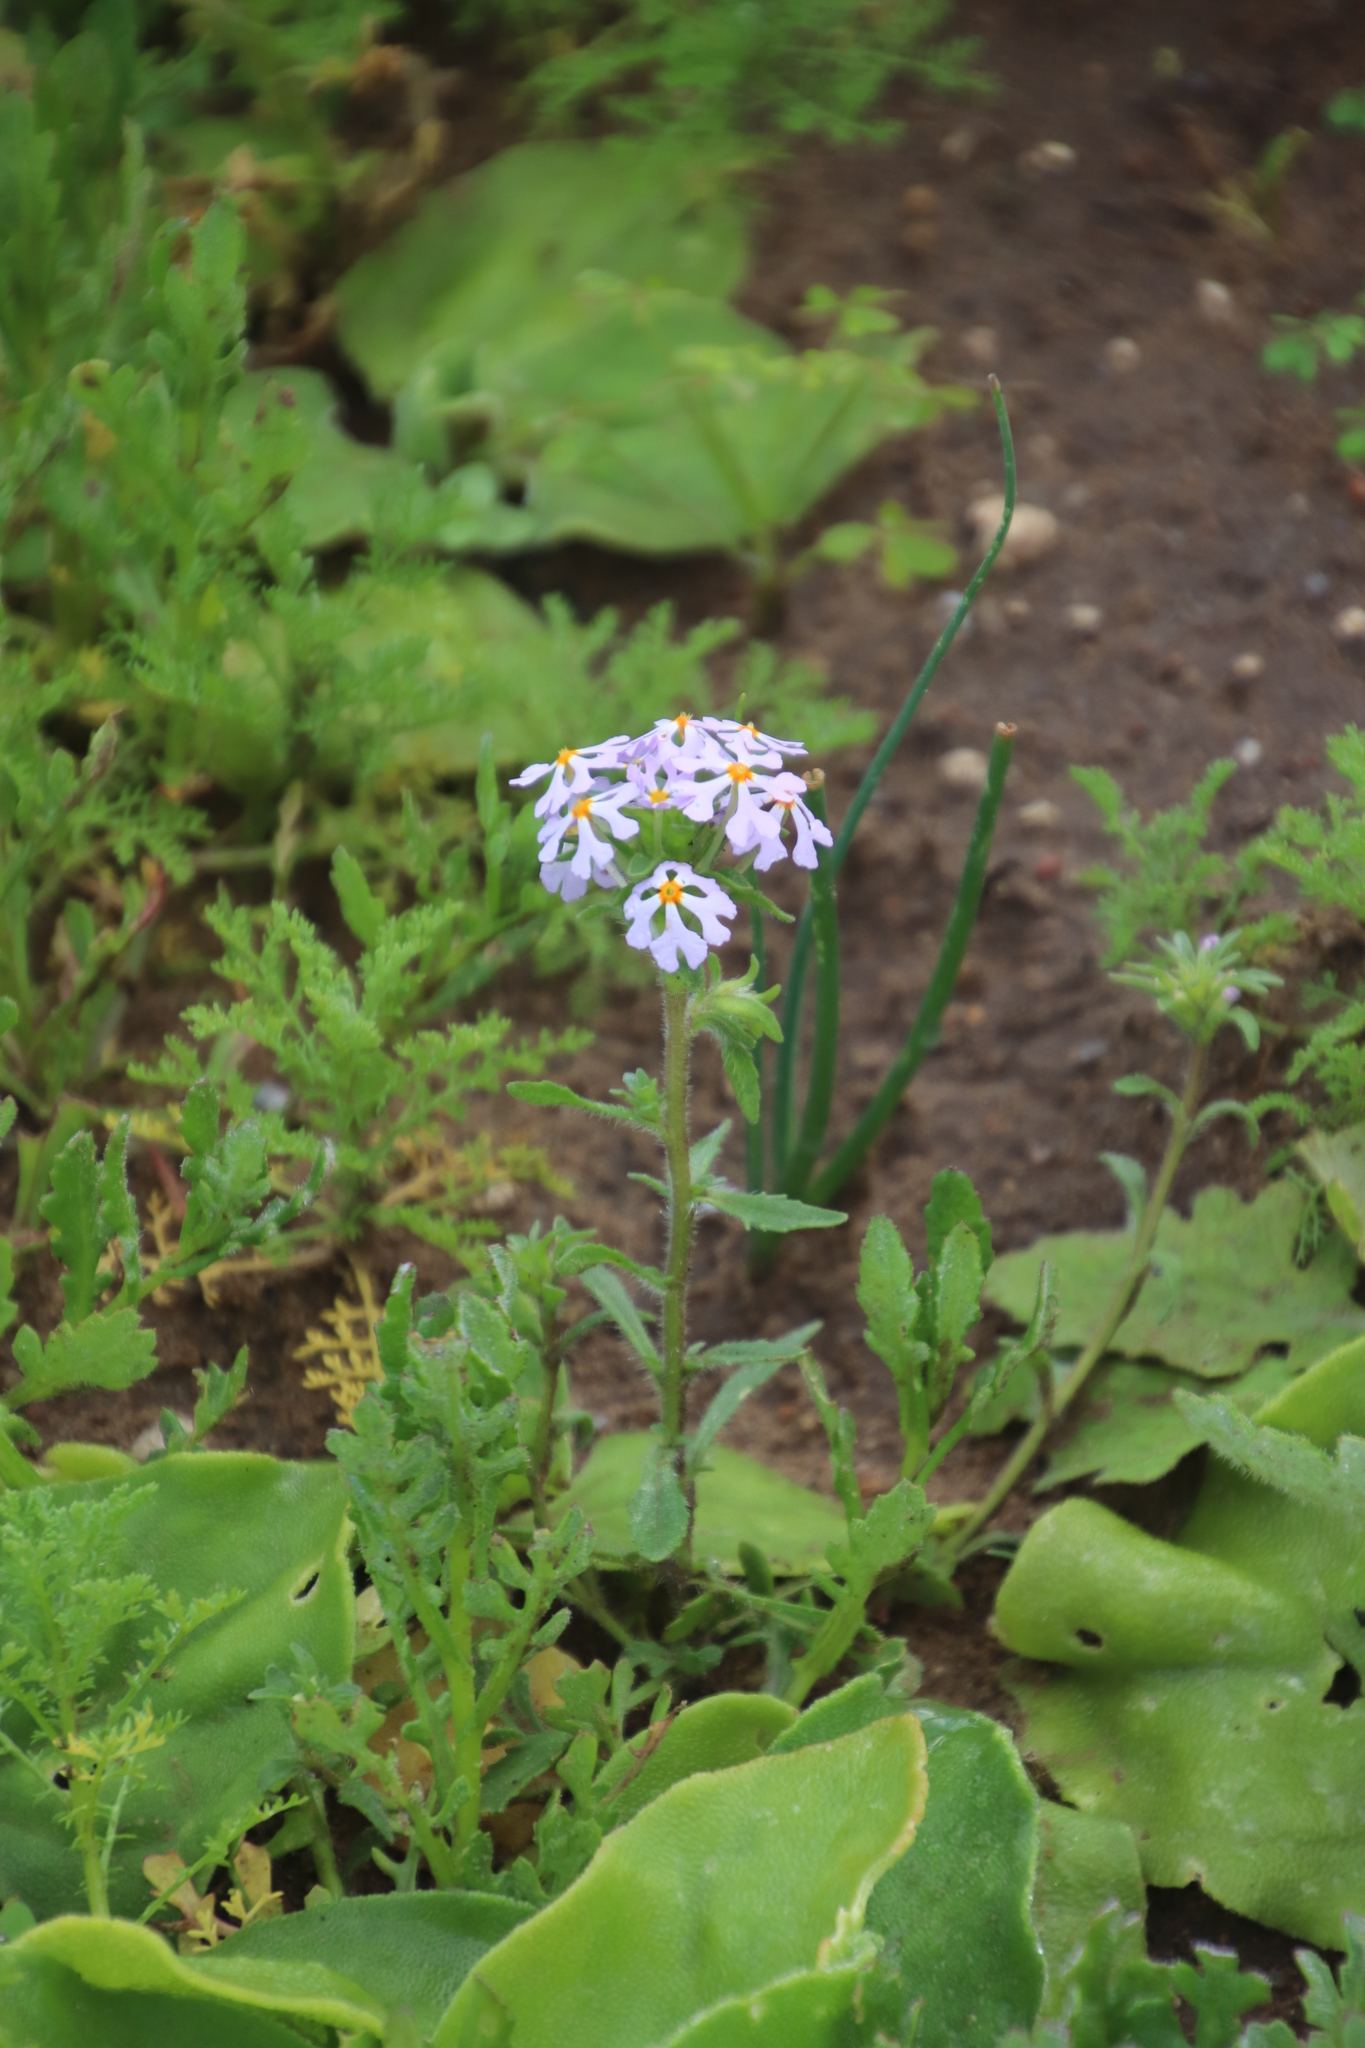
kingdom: Plantae
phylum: Tracheophyta
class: Magnoliopsida
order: Lamiales
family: Scrophulariaceae
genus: Zaluzianskya
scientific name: Zaluzianskya villosa
